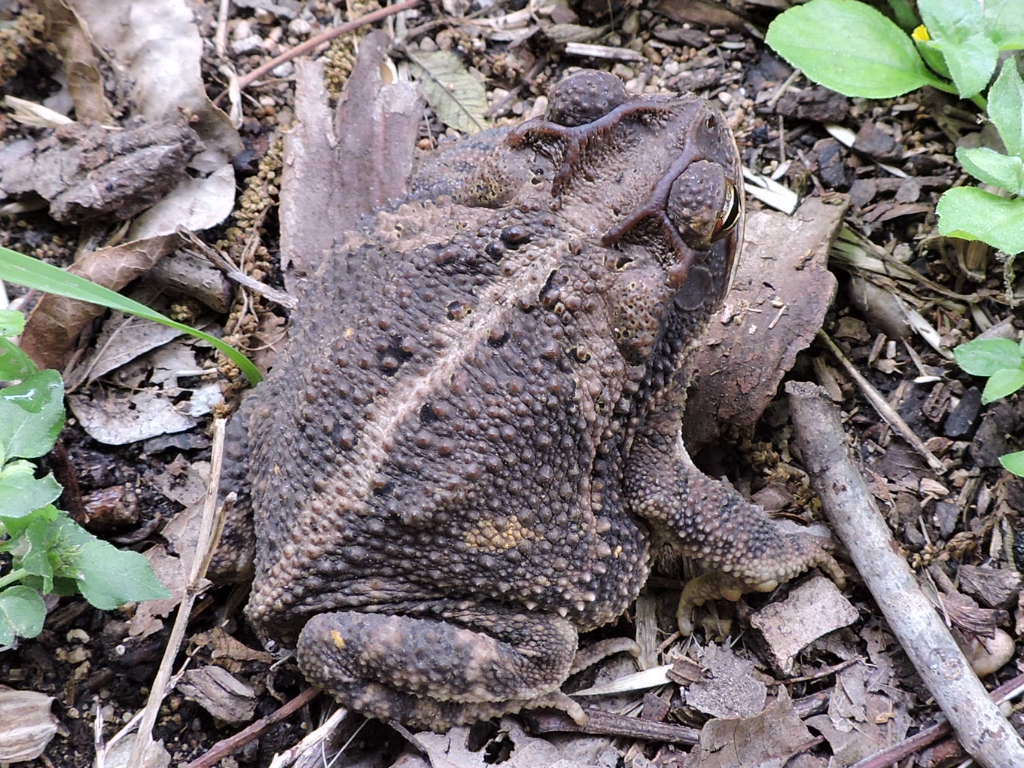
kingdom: Animalia
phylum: Chordata
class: Amphibia
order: Anura
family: Bufonidae
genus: Incilius
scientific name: Incilius nebulifer
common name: Gulf coast toad
